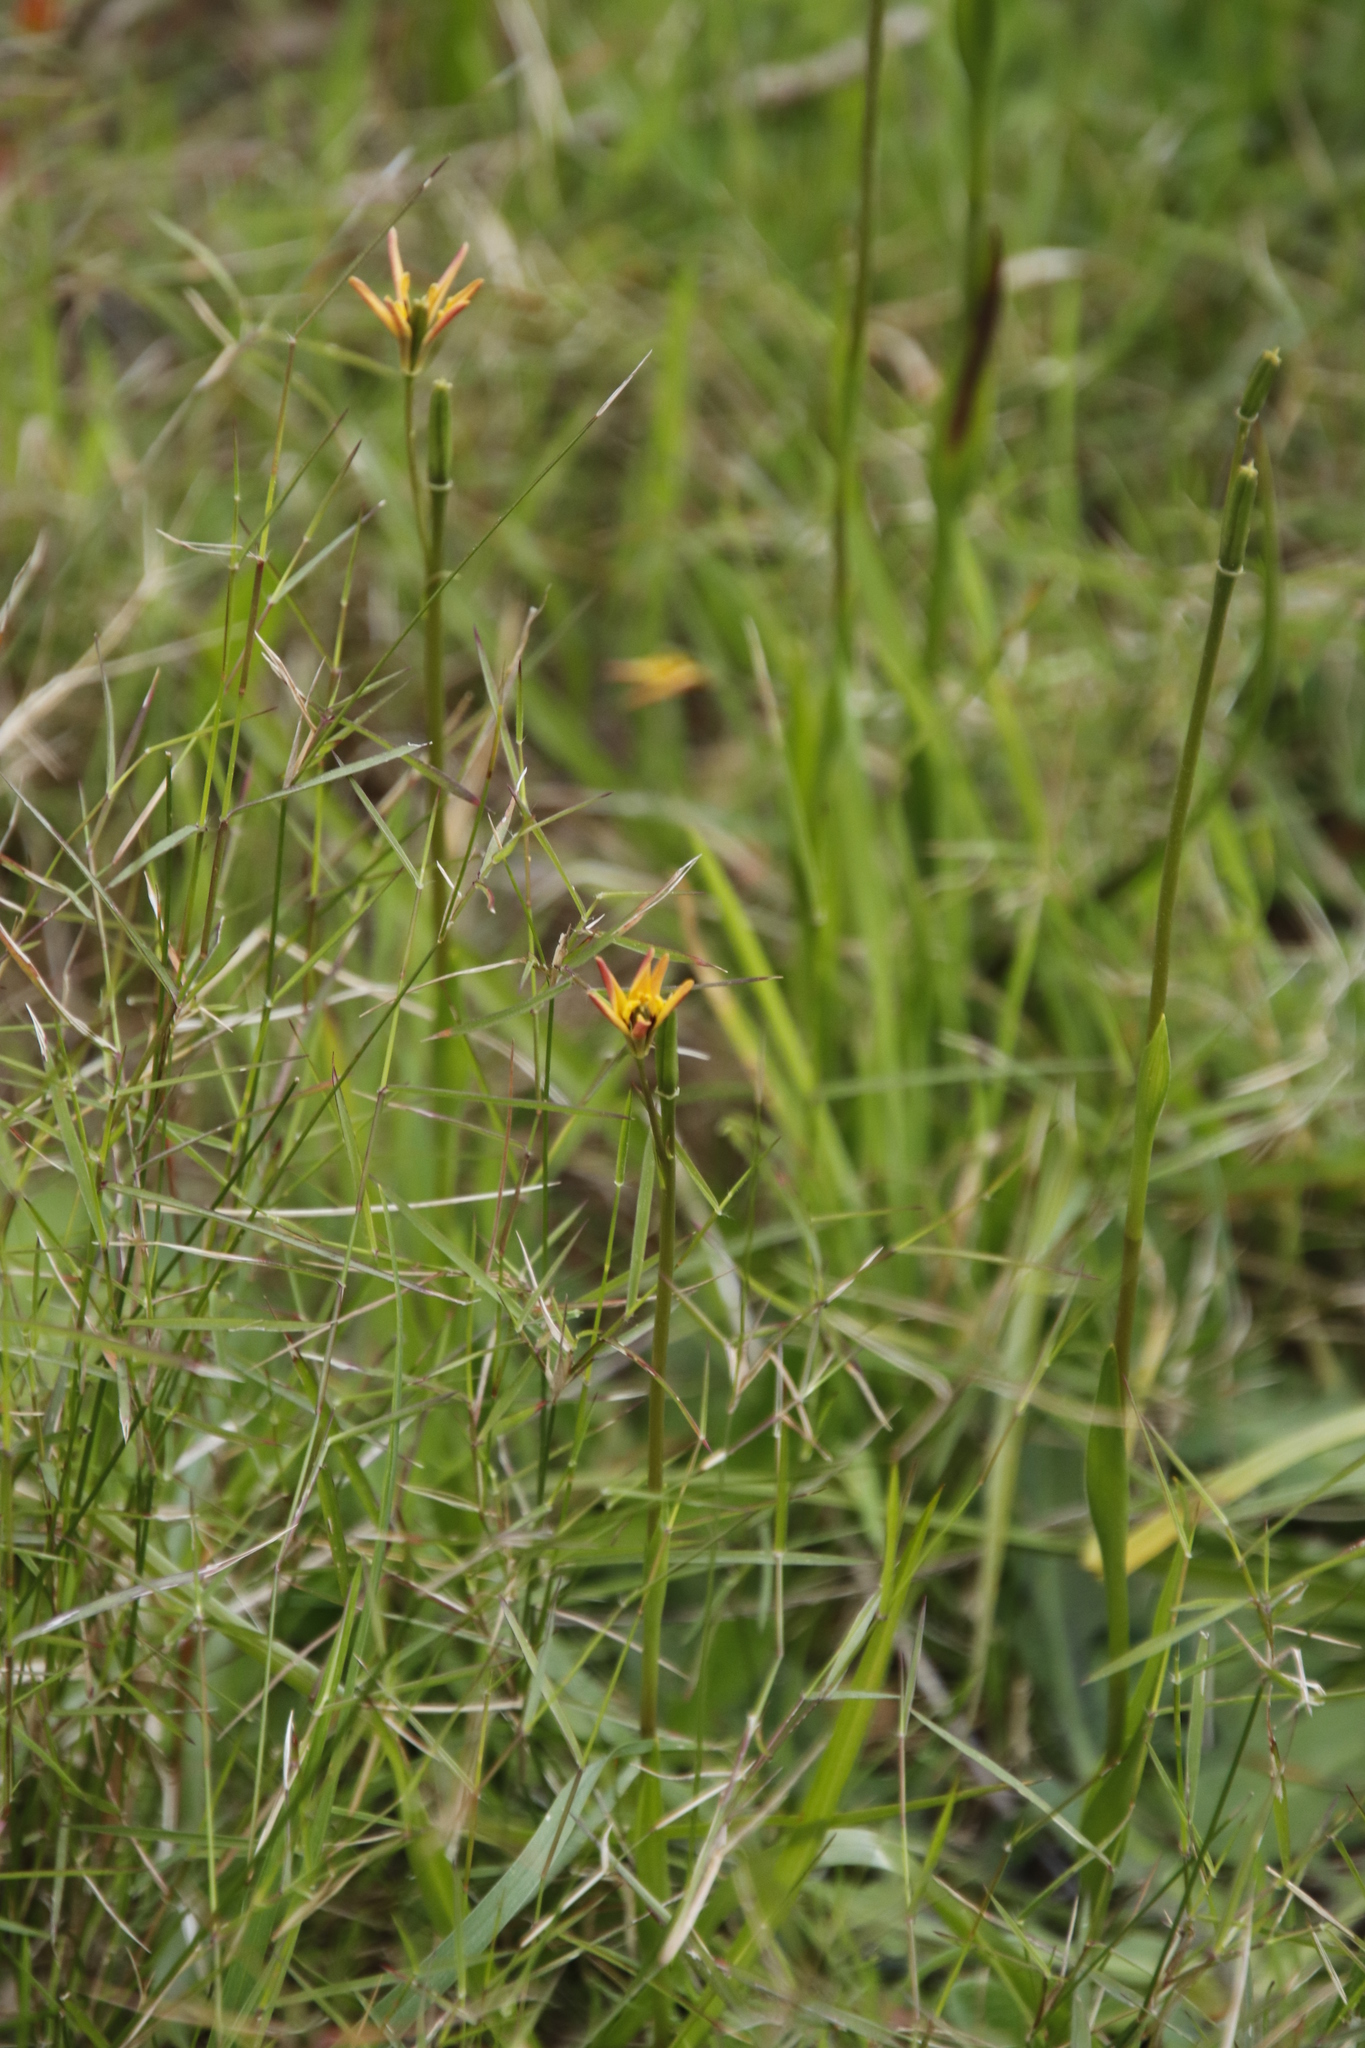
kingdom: Plantae
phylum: Tracheophyta
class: Liliopsida
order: Liliales
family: Colchicaceae
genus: Baeometra
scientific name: Baeometra uniflora
